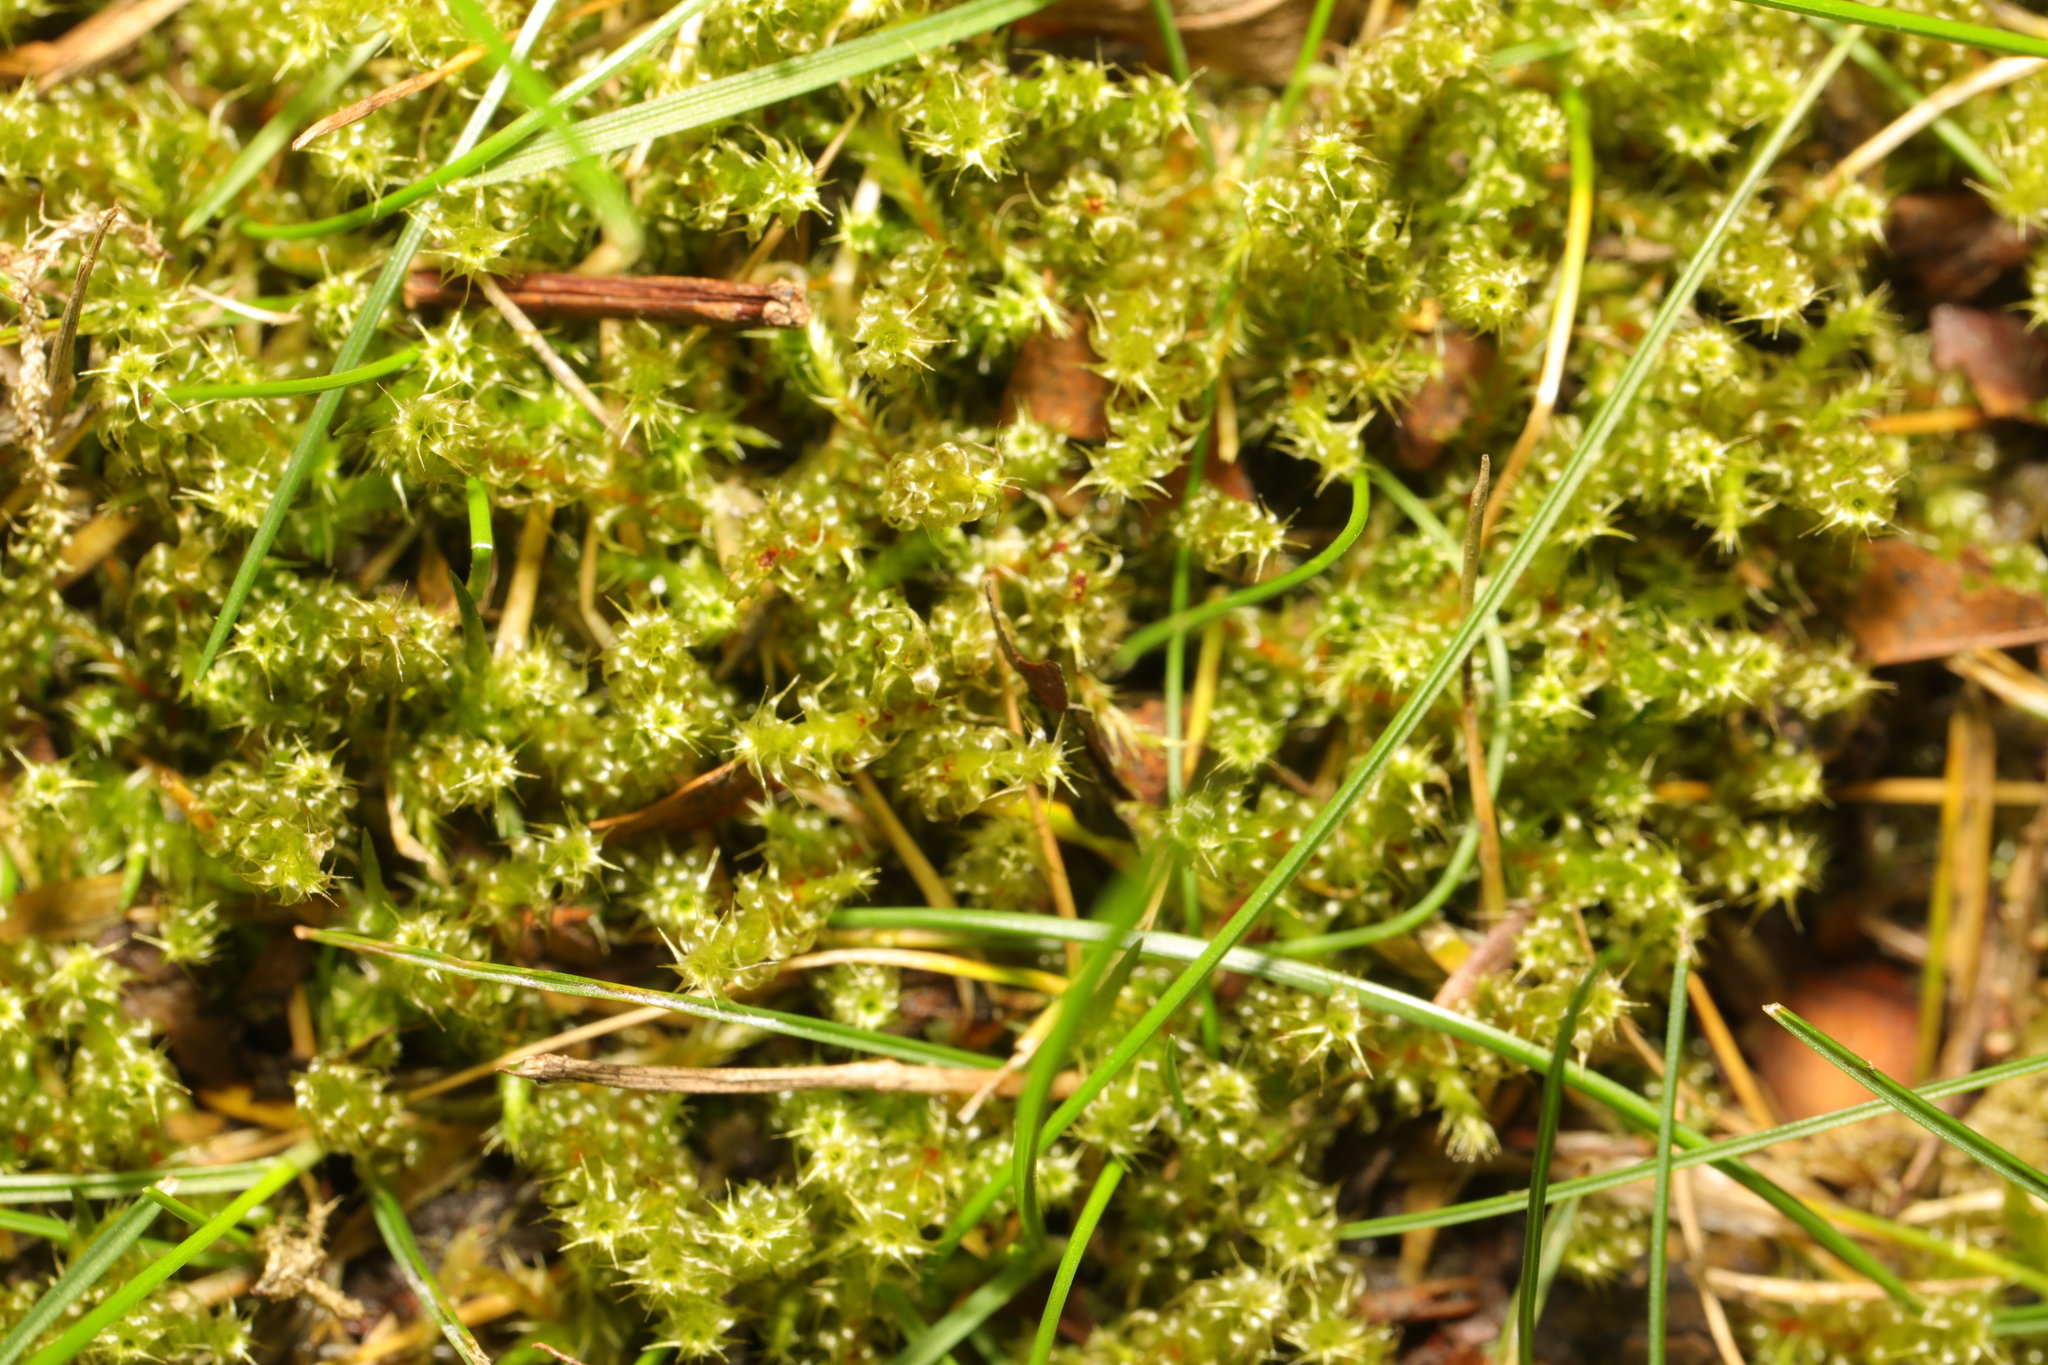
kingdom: Plantae
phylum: Bryophyta
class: Bryopsida
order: Hypnales
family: Hylocomiaceae
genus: Rhytidiadelphus
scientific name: Rhytidiadelphus squarrosus
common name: Springy turf-moss
